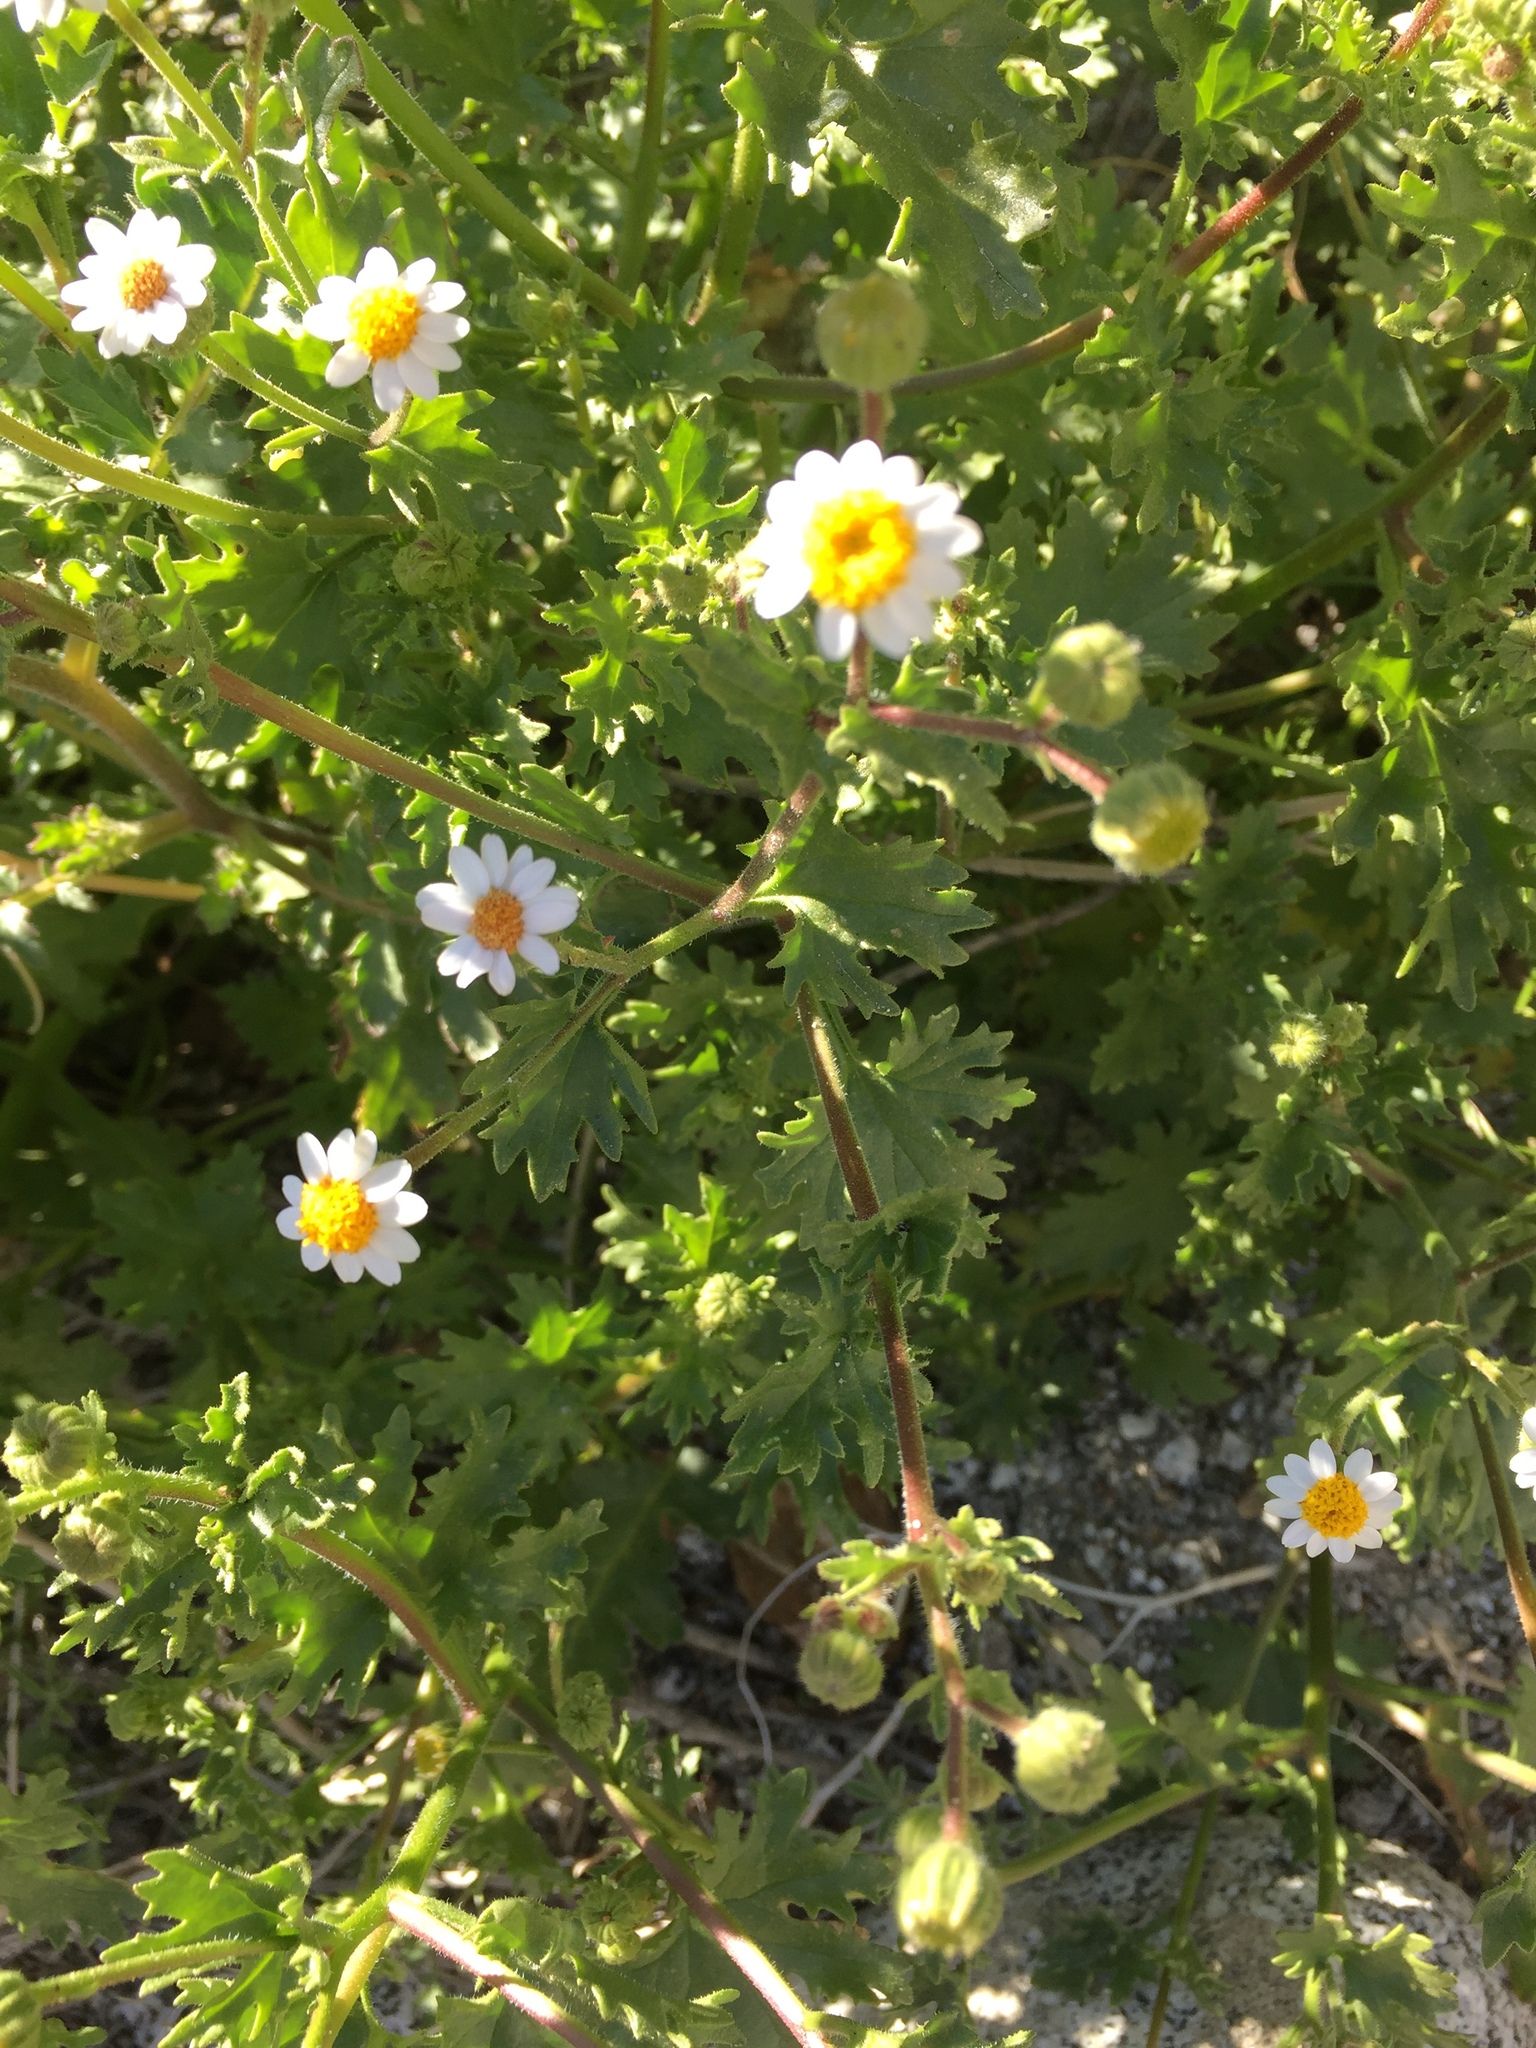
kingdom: Plantae
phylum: Tracheophyta
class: Magnoliopsida
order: Asterales
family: Asteraceae
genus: Laphamia
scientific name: Laphamia emoryi
